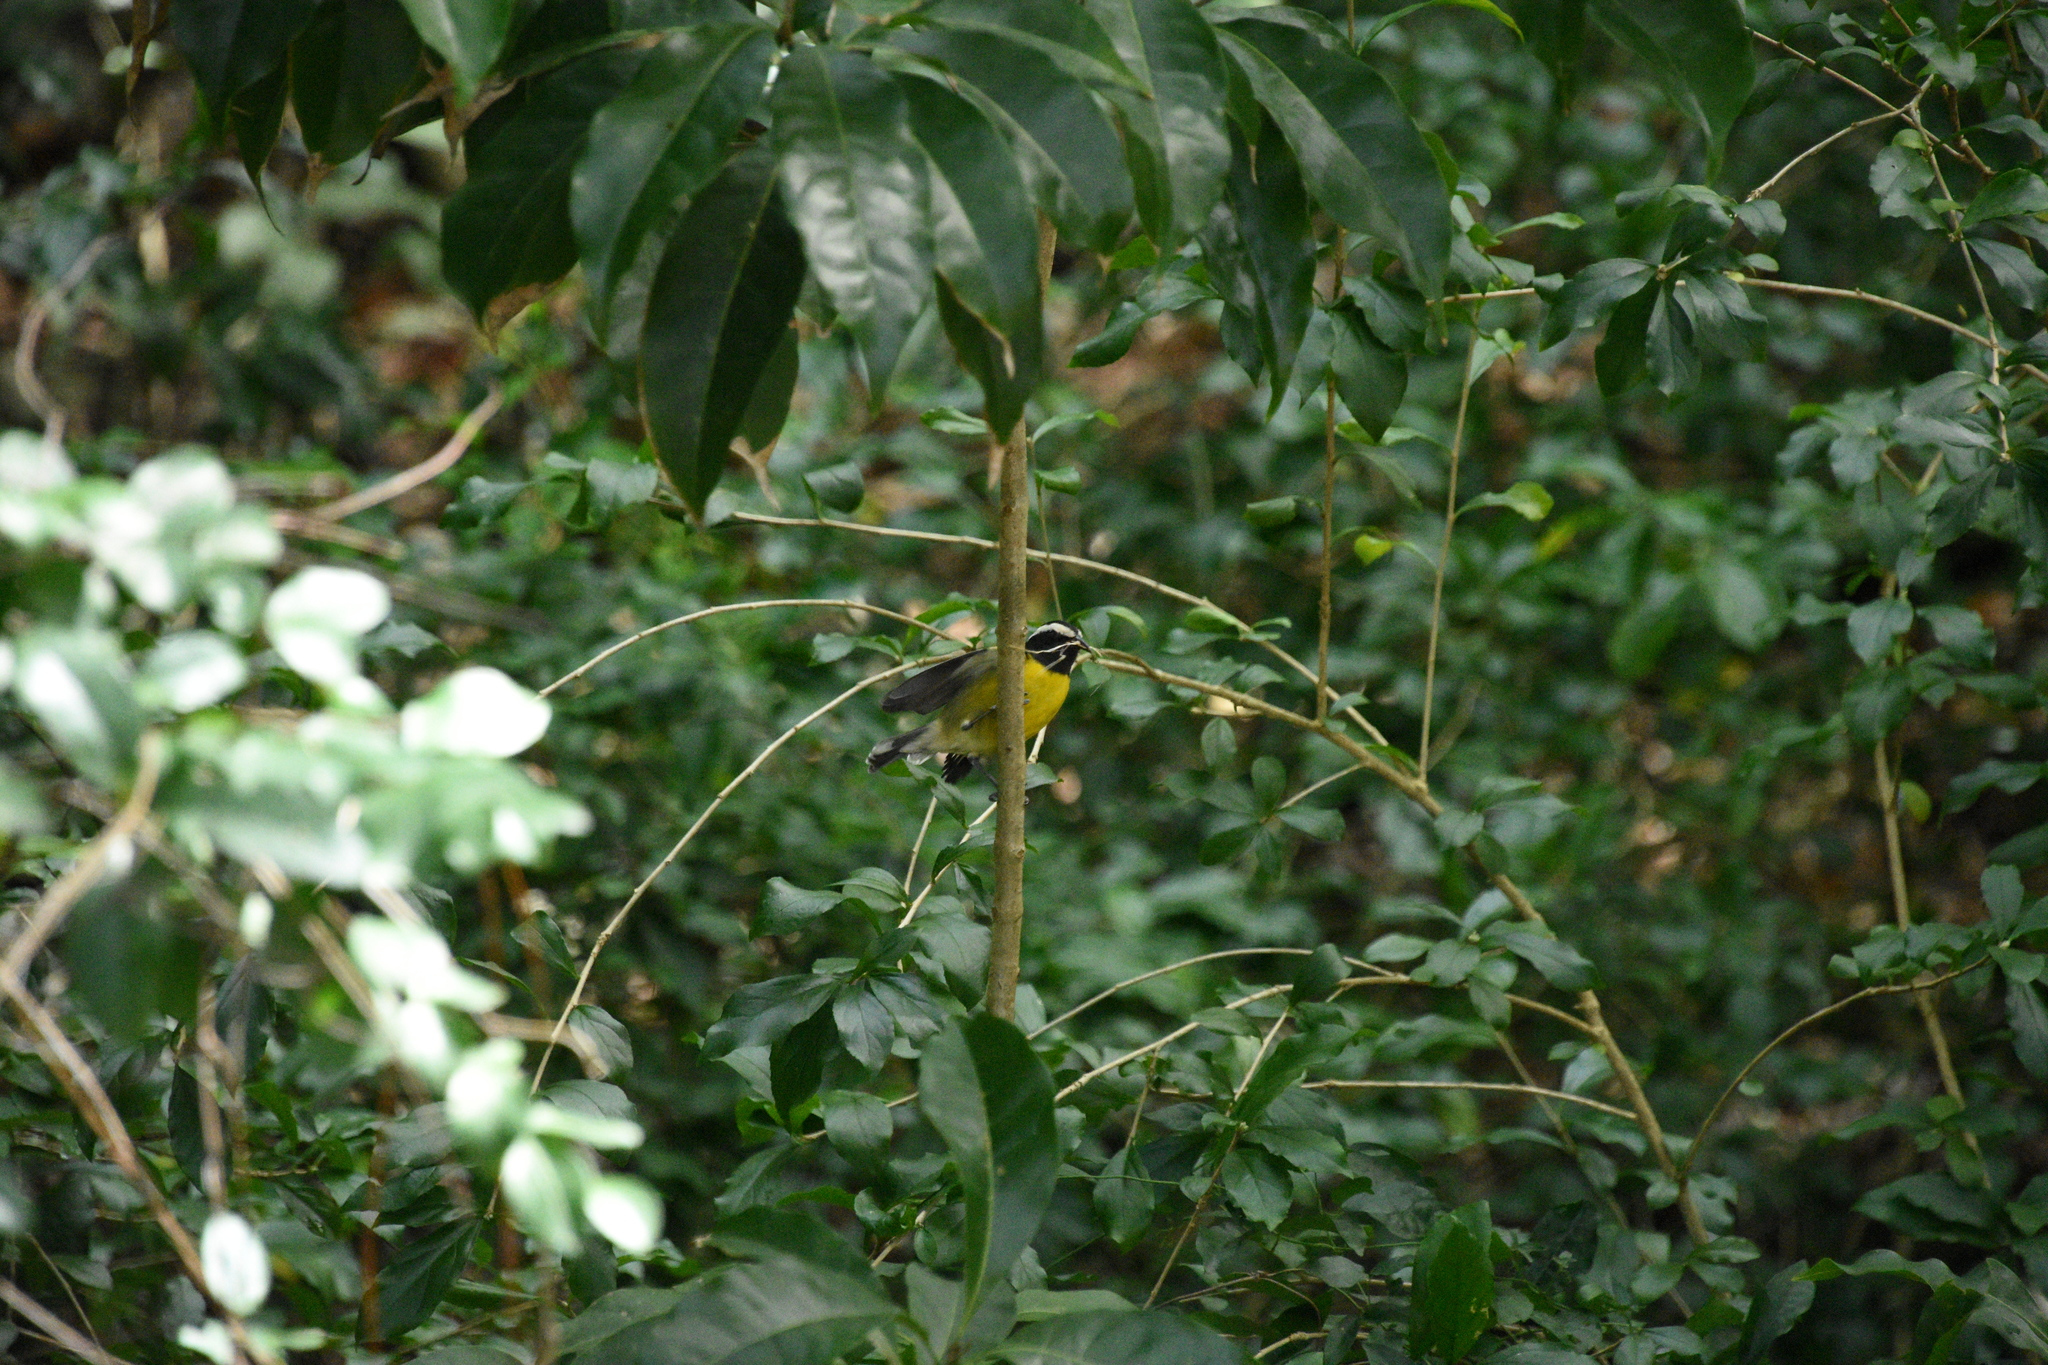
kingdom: Animalia
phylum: Chordata
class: Aves
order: Passeriformes
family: Thraupidae
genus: Coereba
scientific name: Coereba flaveola
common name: Bananaquit
